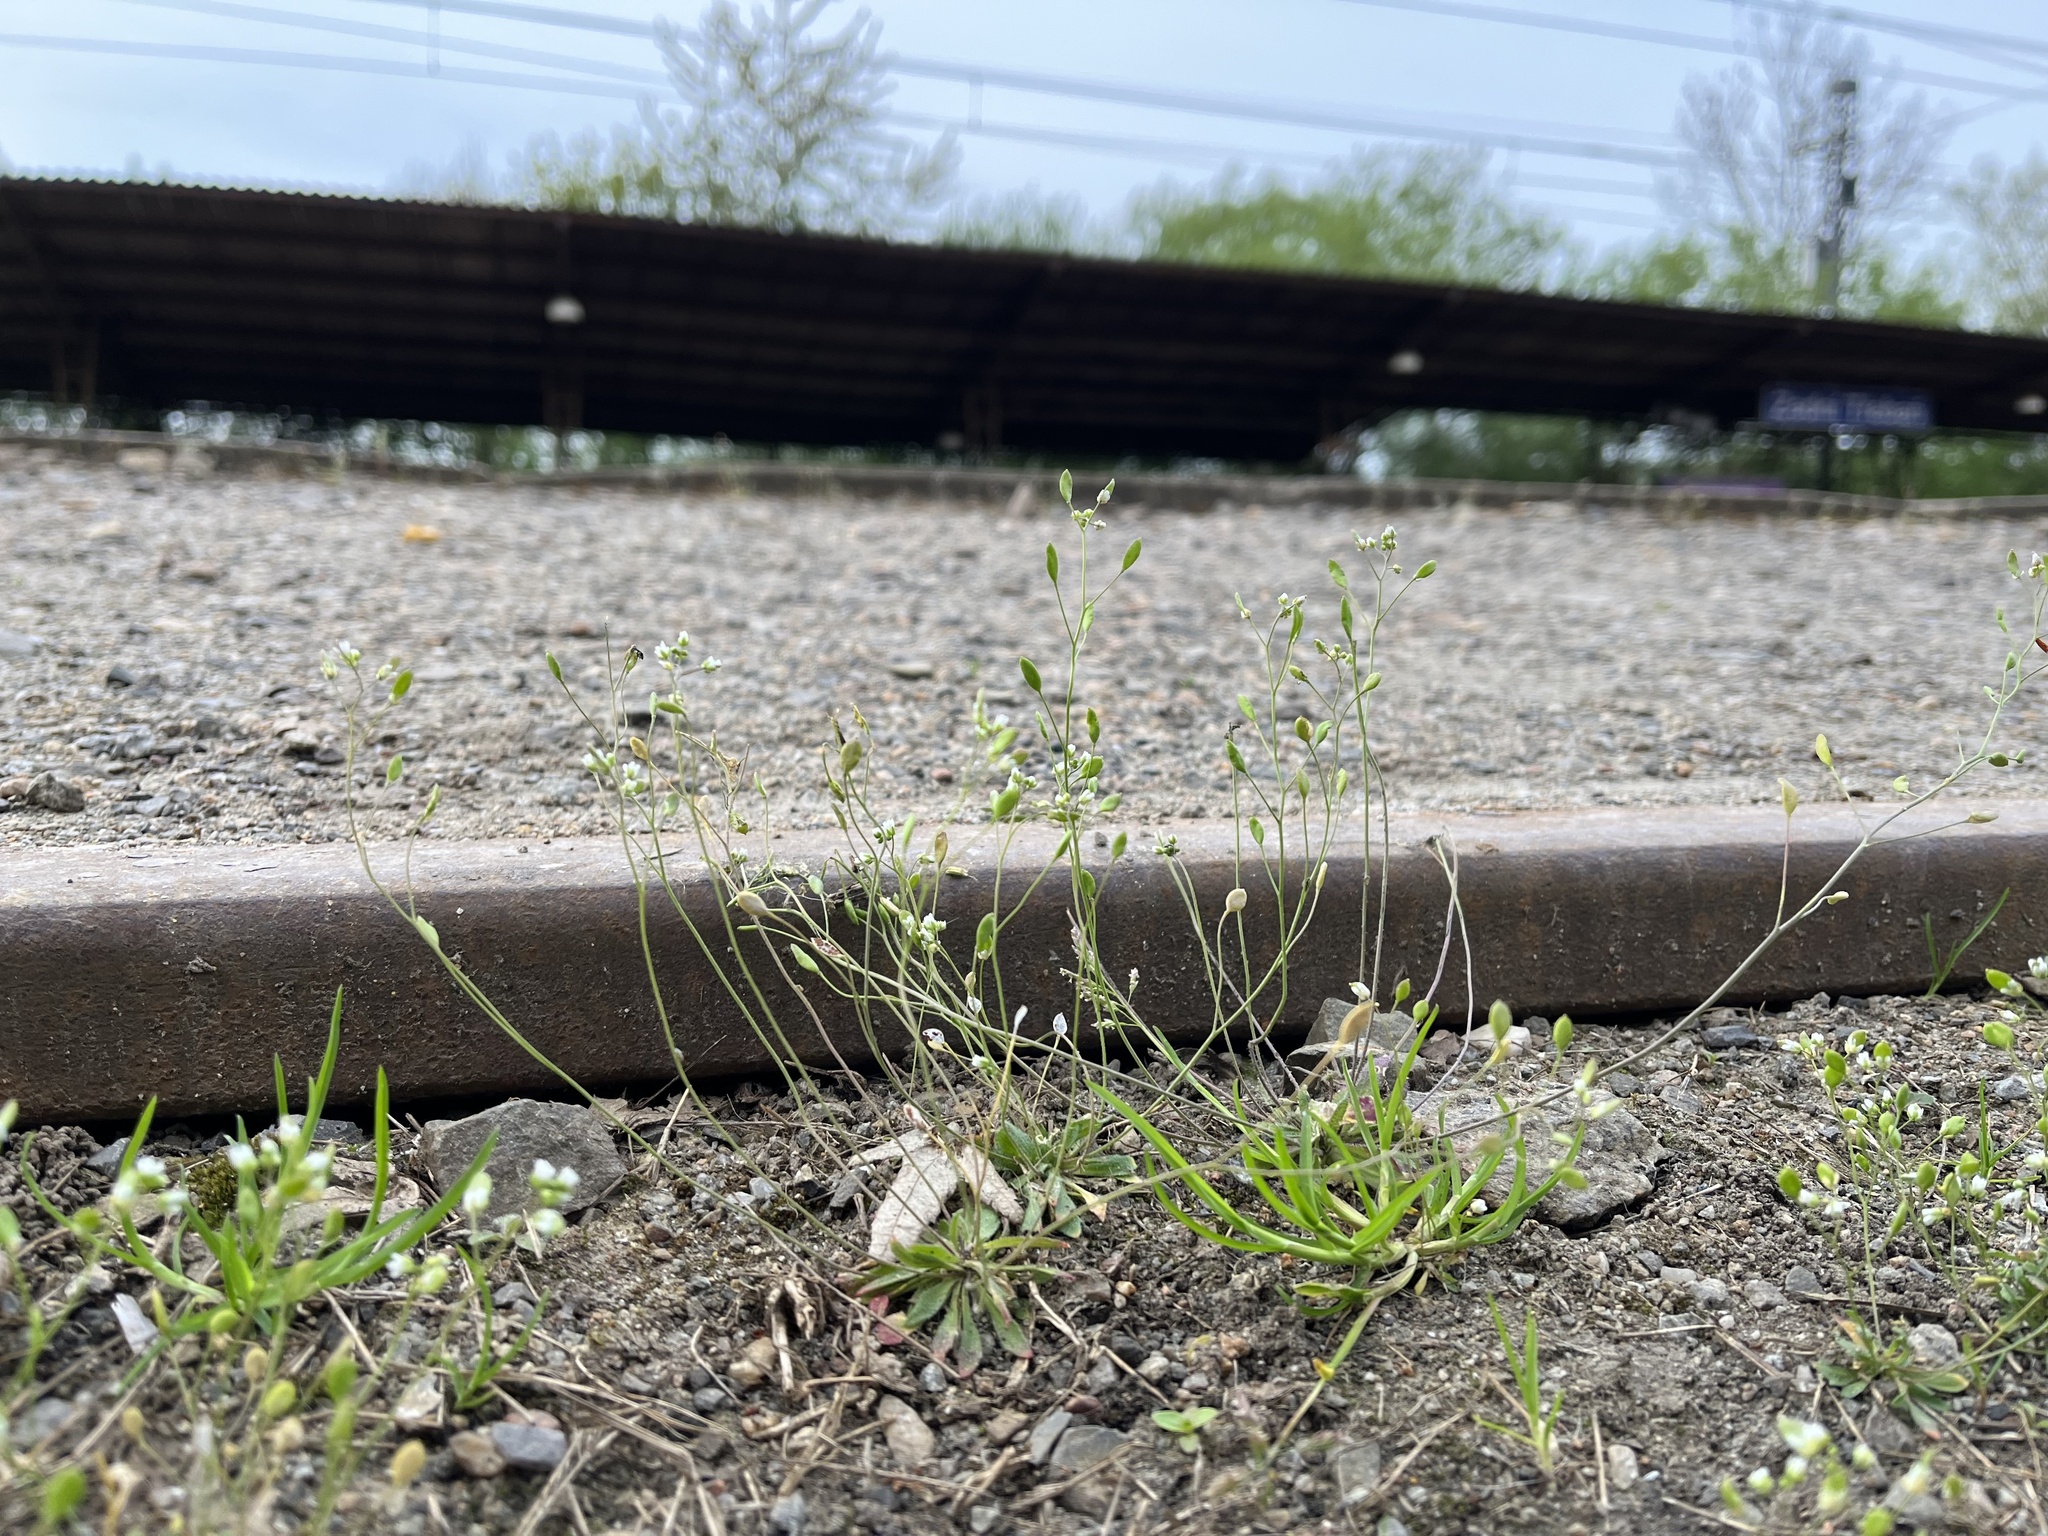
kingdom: Plantae
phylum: Tracheophyta
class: Magnoliopsida
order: Brassicales
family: Brassicaceae
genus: Draba
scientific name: Draba verna
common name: Spring draba
